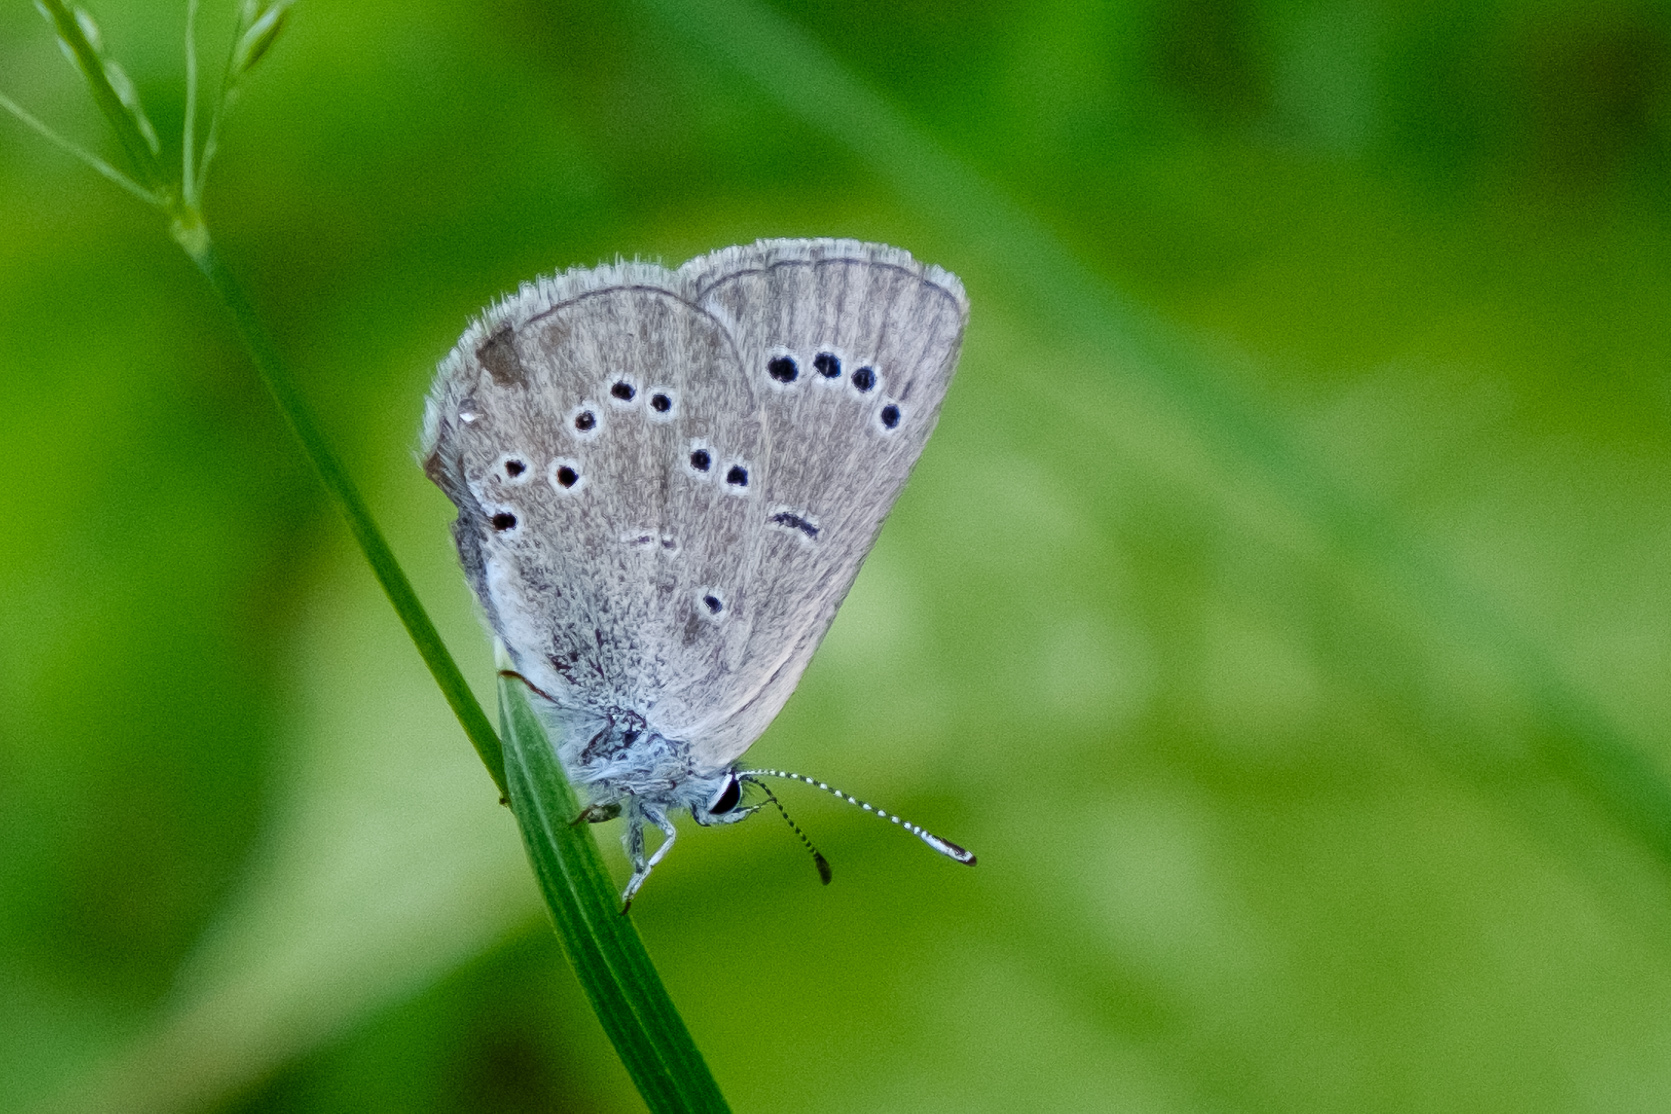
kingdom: Animalia
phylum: Arthropoda
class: Insecta
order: Lepidoptera
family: Lycaenidae
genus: Glaucopsyche
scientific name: Glaucopsyche lygdamus
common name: Silvery blue
